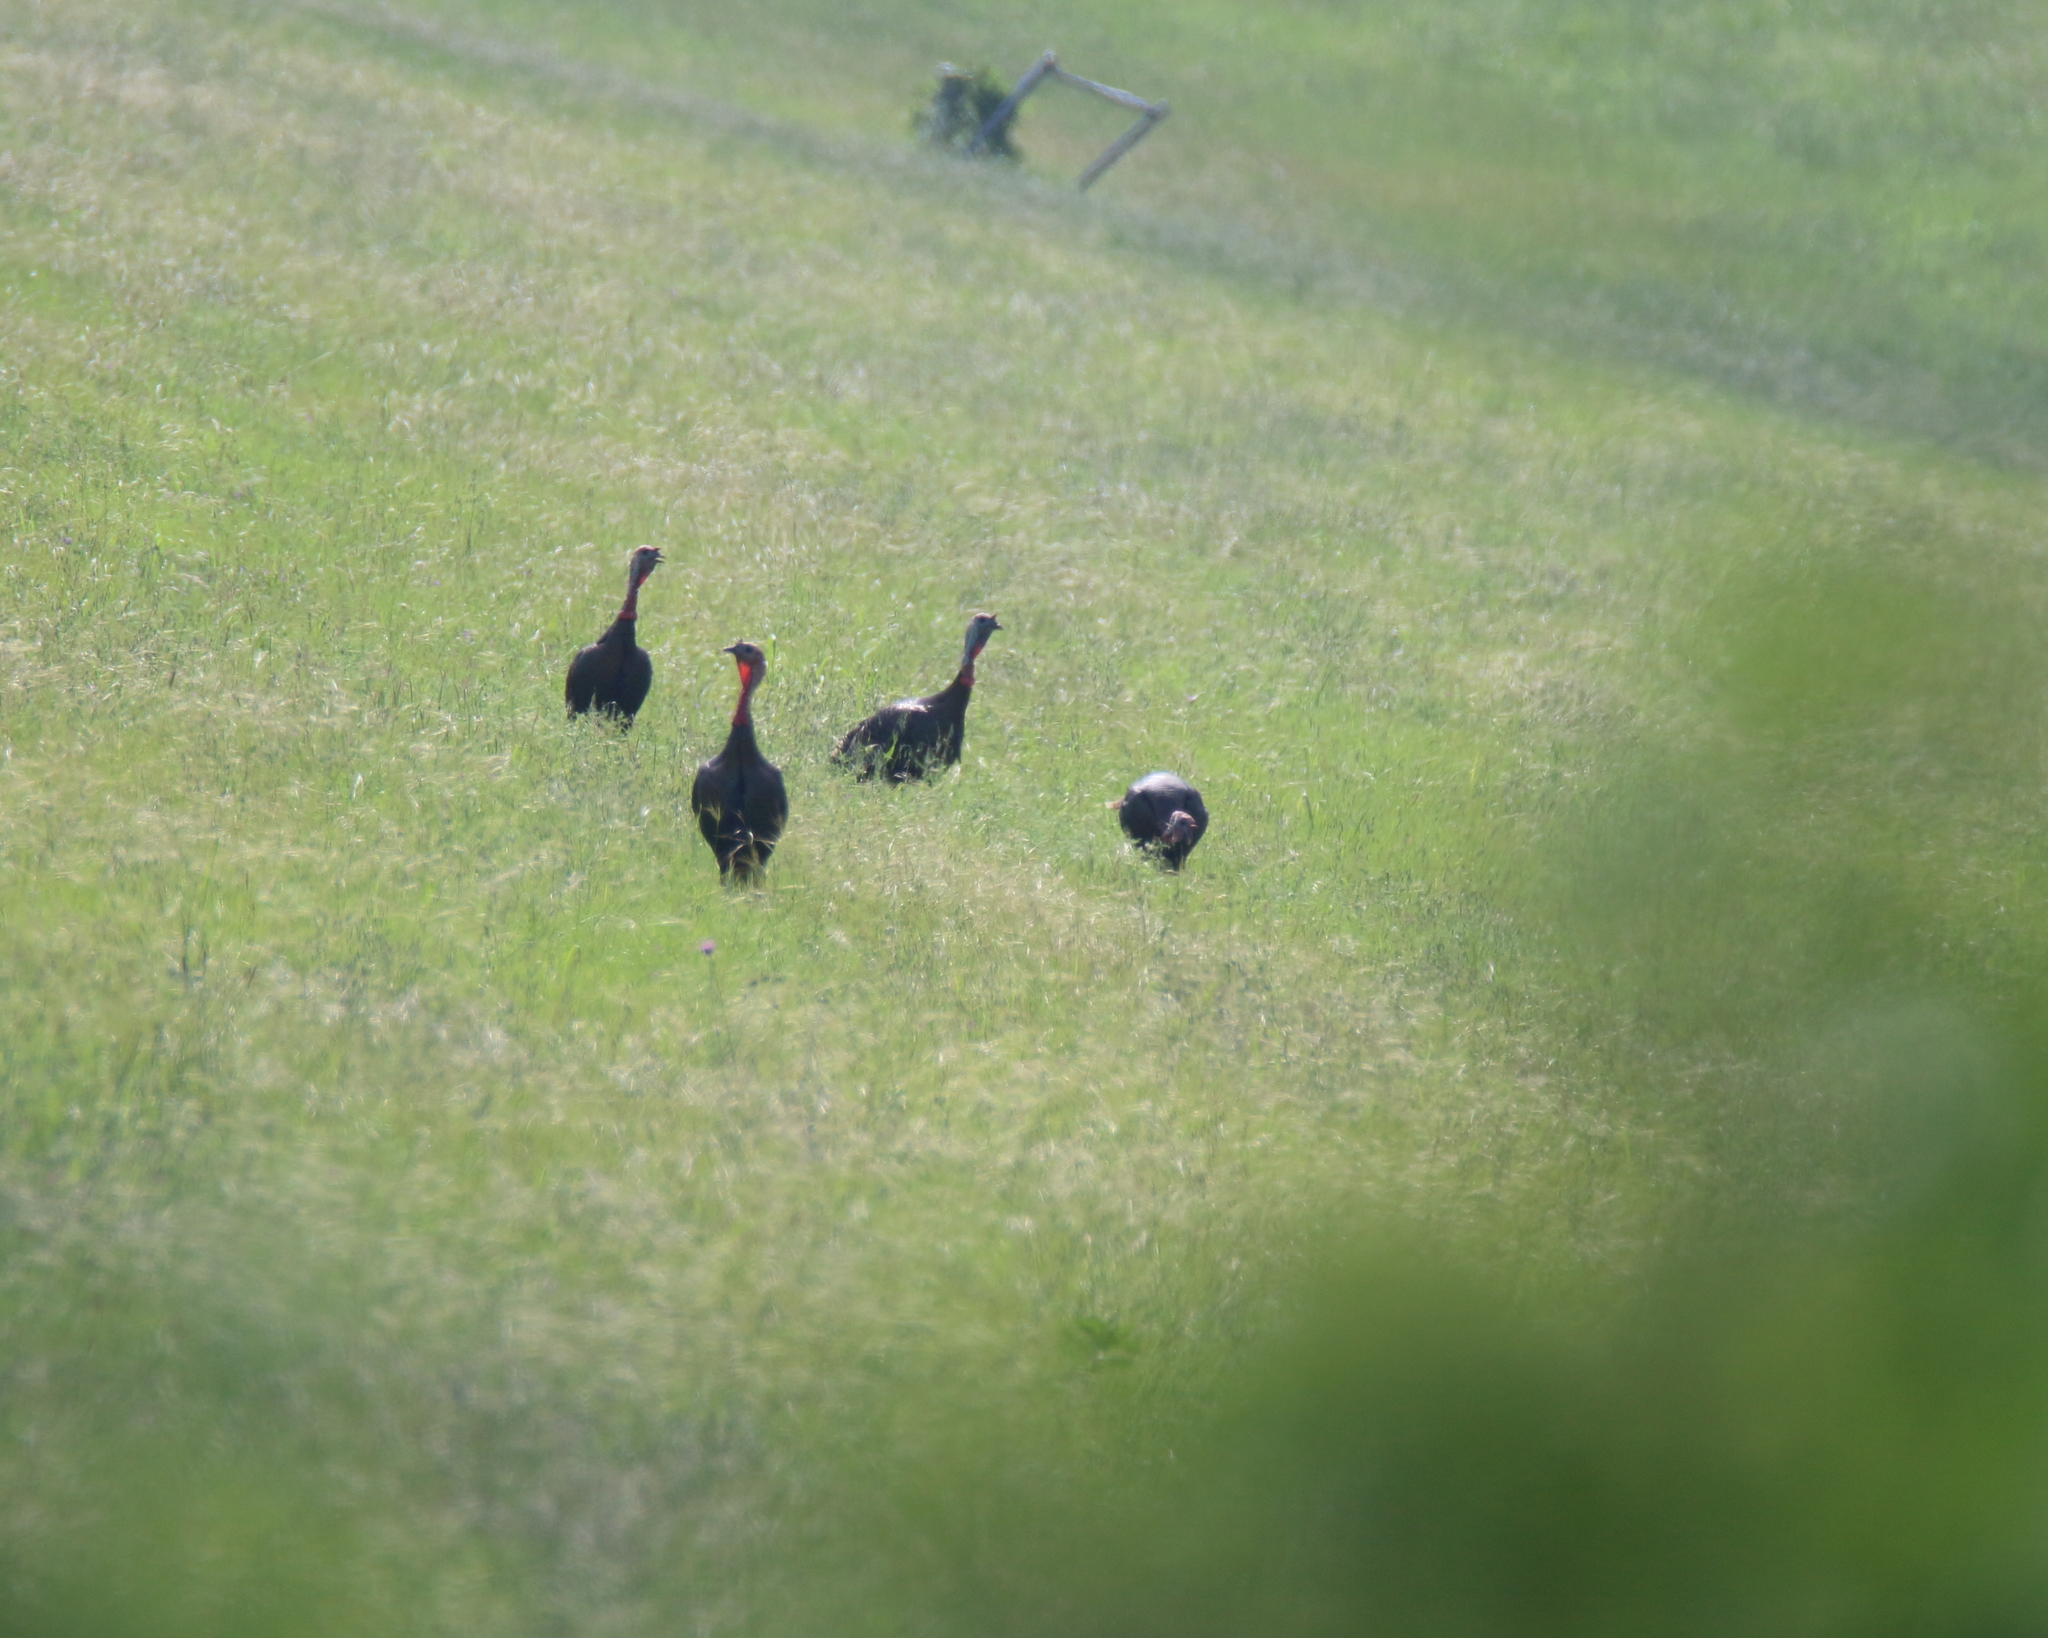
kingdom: Animalia
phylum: Chordata
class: Aves
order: Galliformes
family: Phasianidae
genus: Meleagris
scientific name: Meleagris gallopavo
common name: Wild turkey
